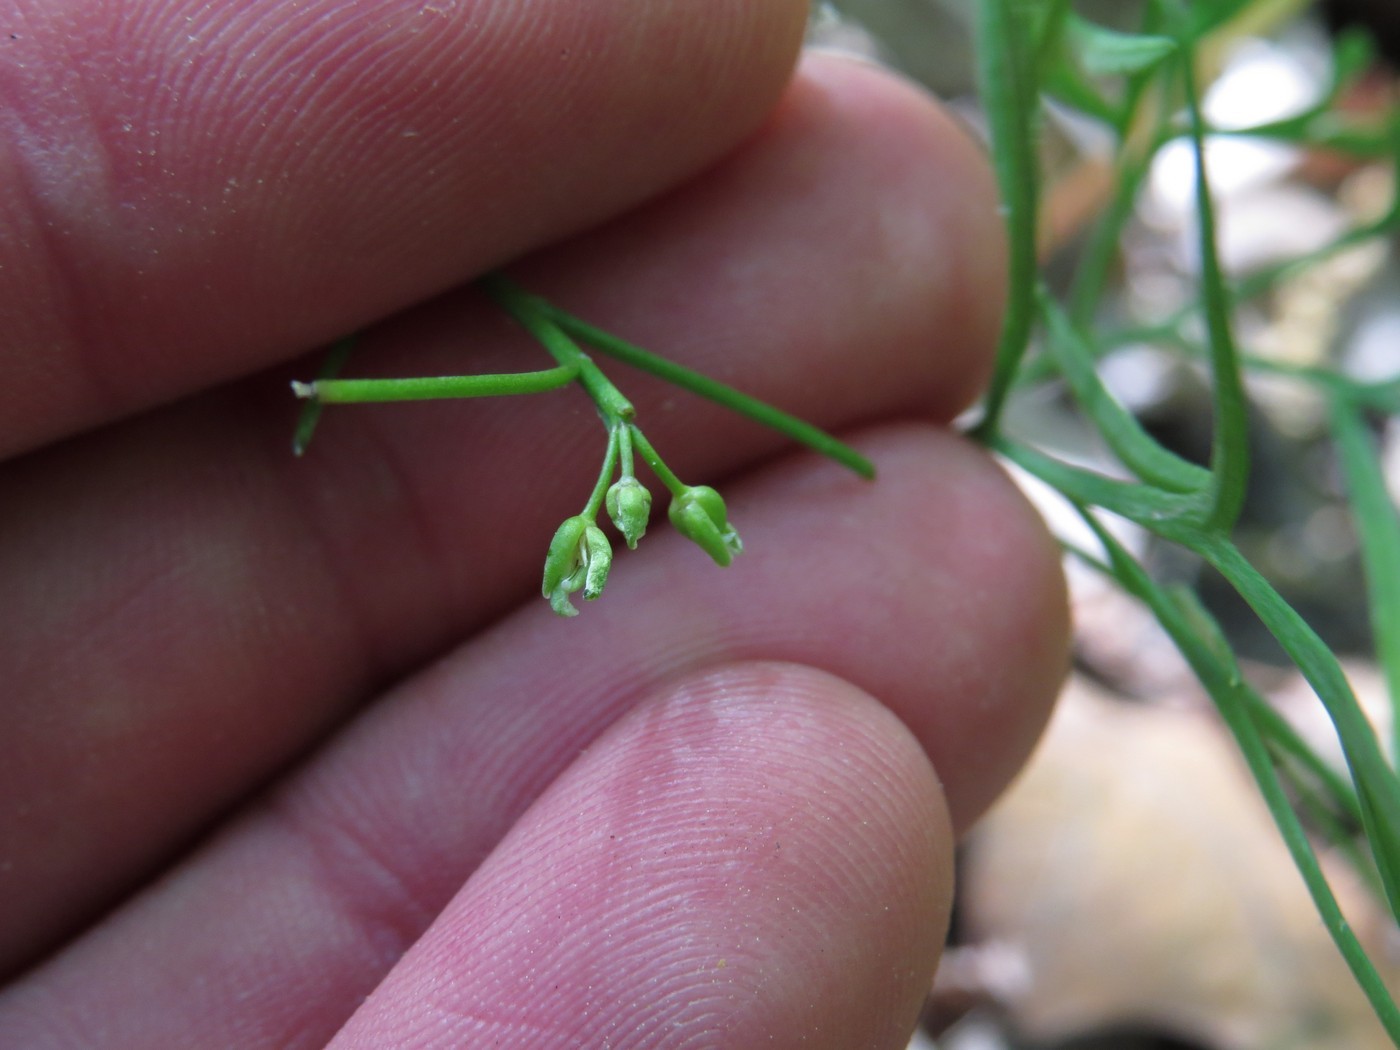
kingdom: Plantae
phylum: Tracheophyta
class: Magnoliopsida
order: Brassicales
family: Brassicaceae
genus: Cardamine
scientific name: Cardamine dissecta
